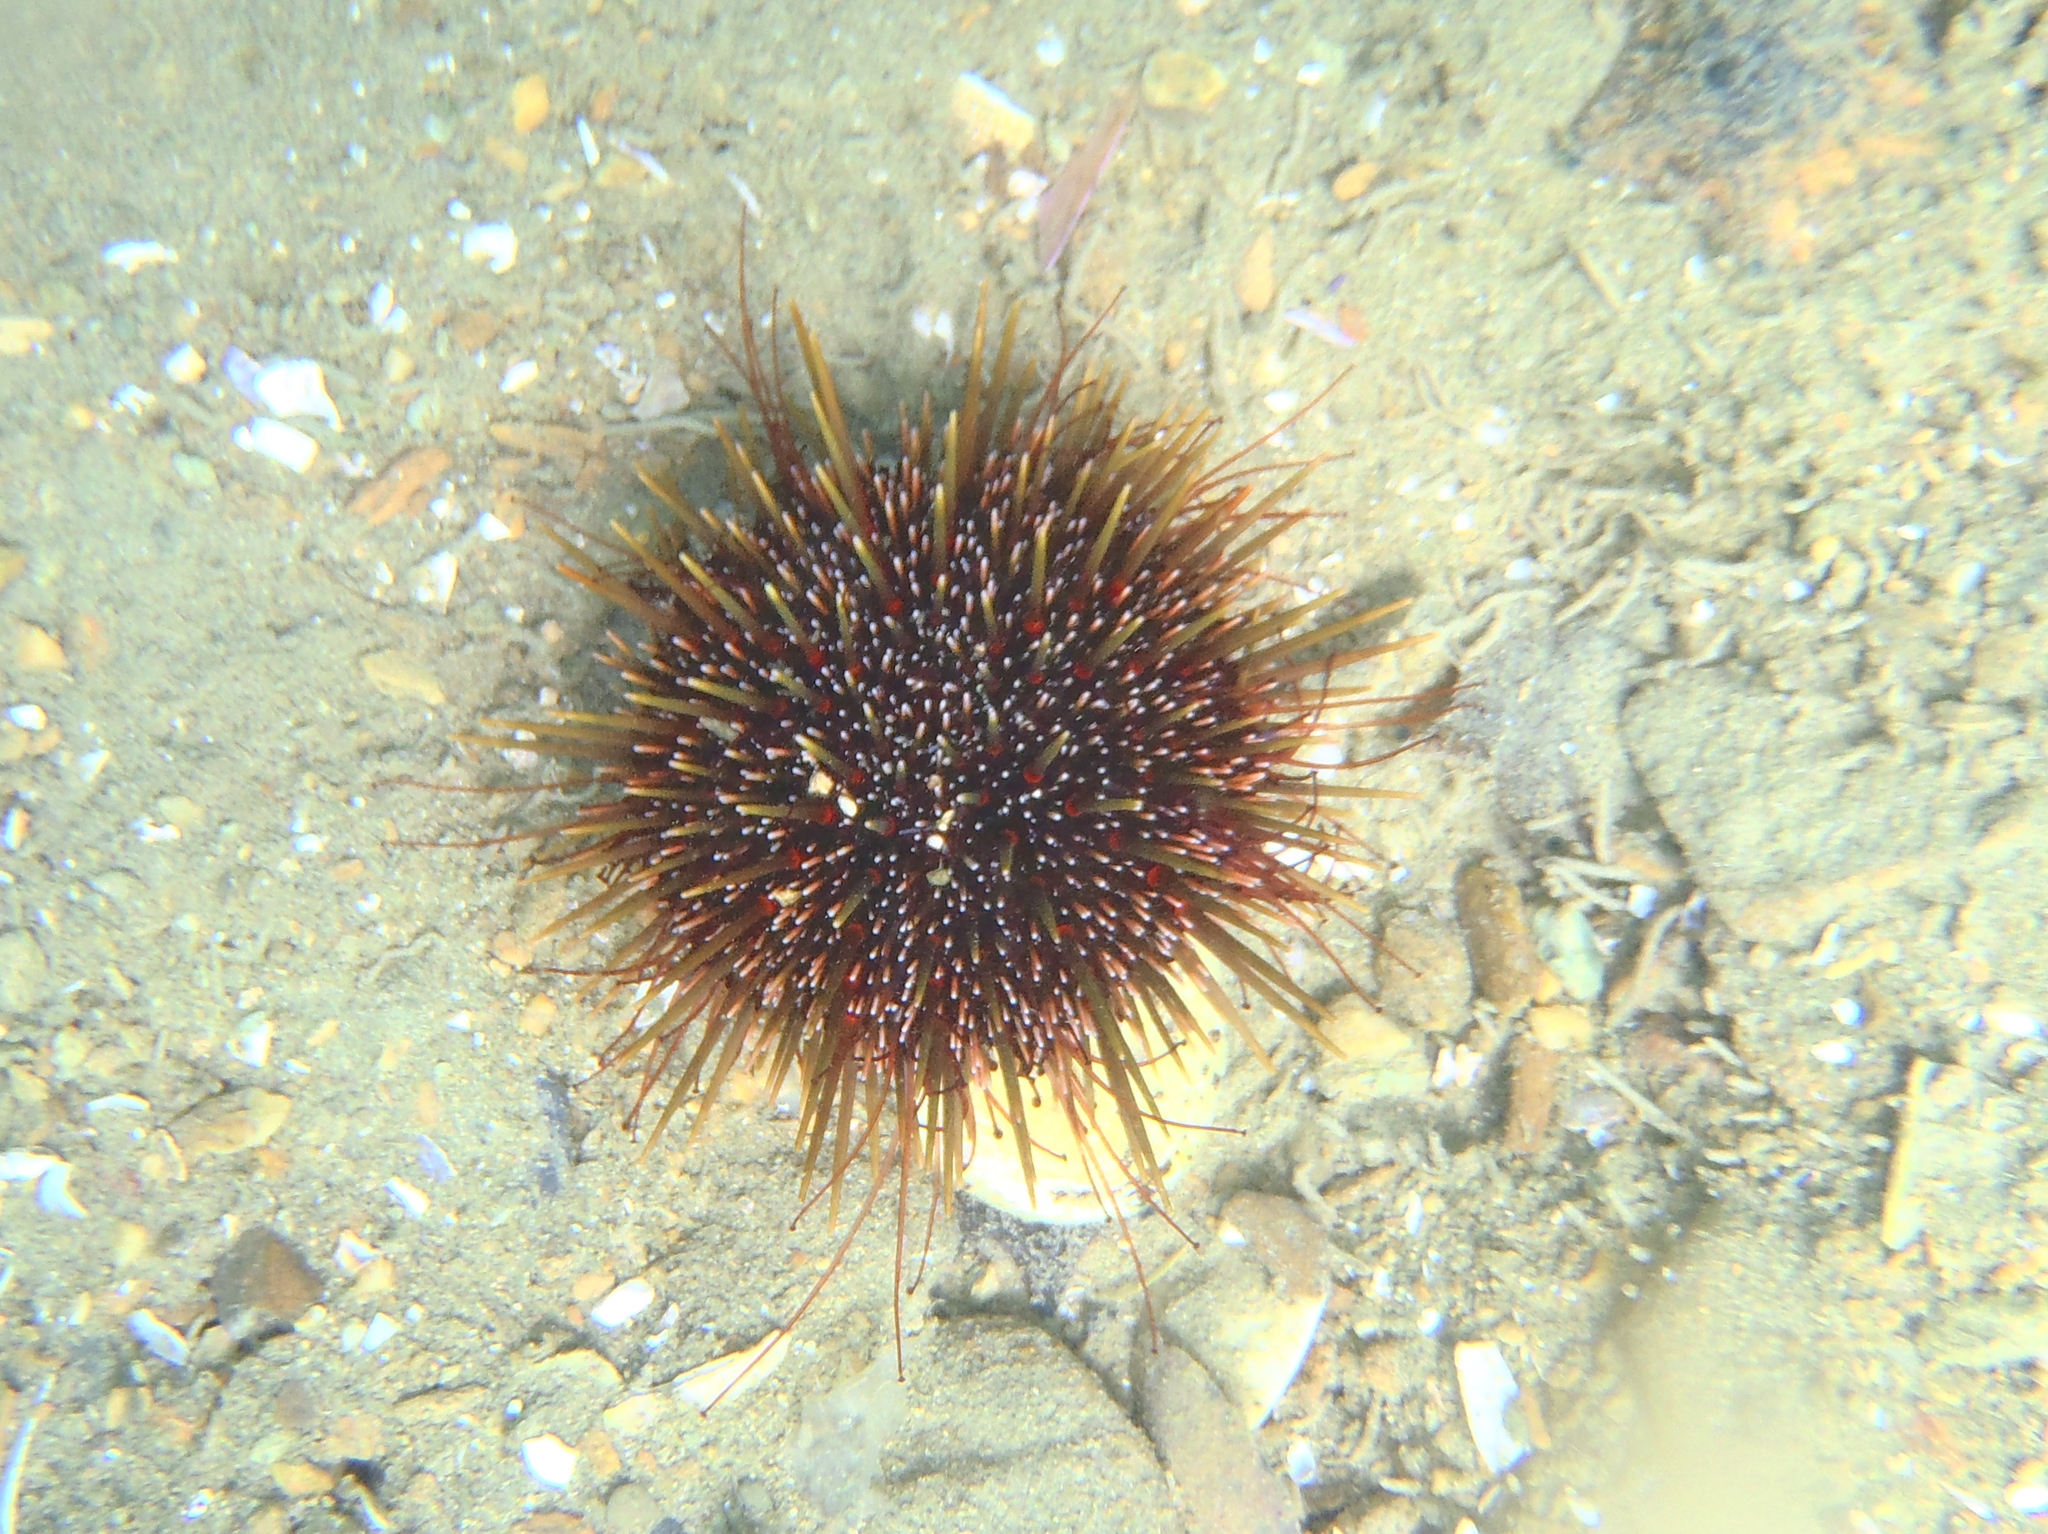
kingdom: Animalia
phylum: Echinodermata
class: Echinoidea
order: Camarodonta
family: Echinometridae
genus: Evechinus
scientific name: Evechinus chloroticus
